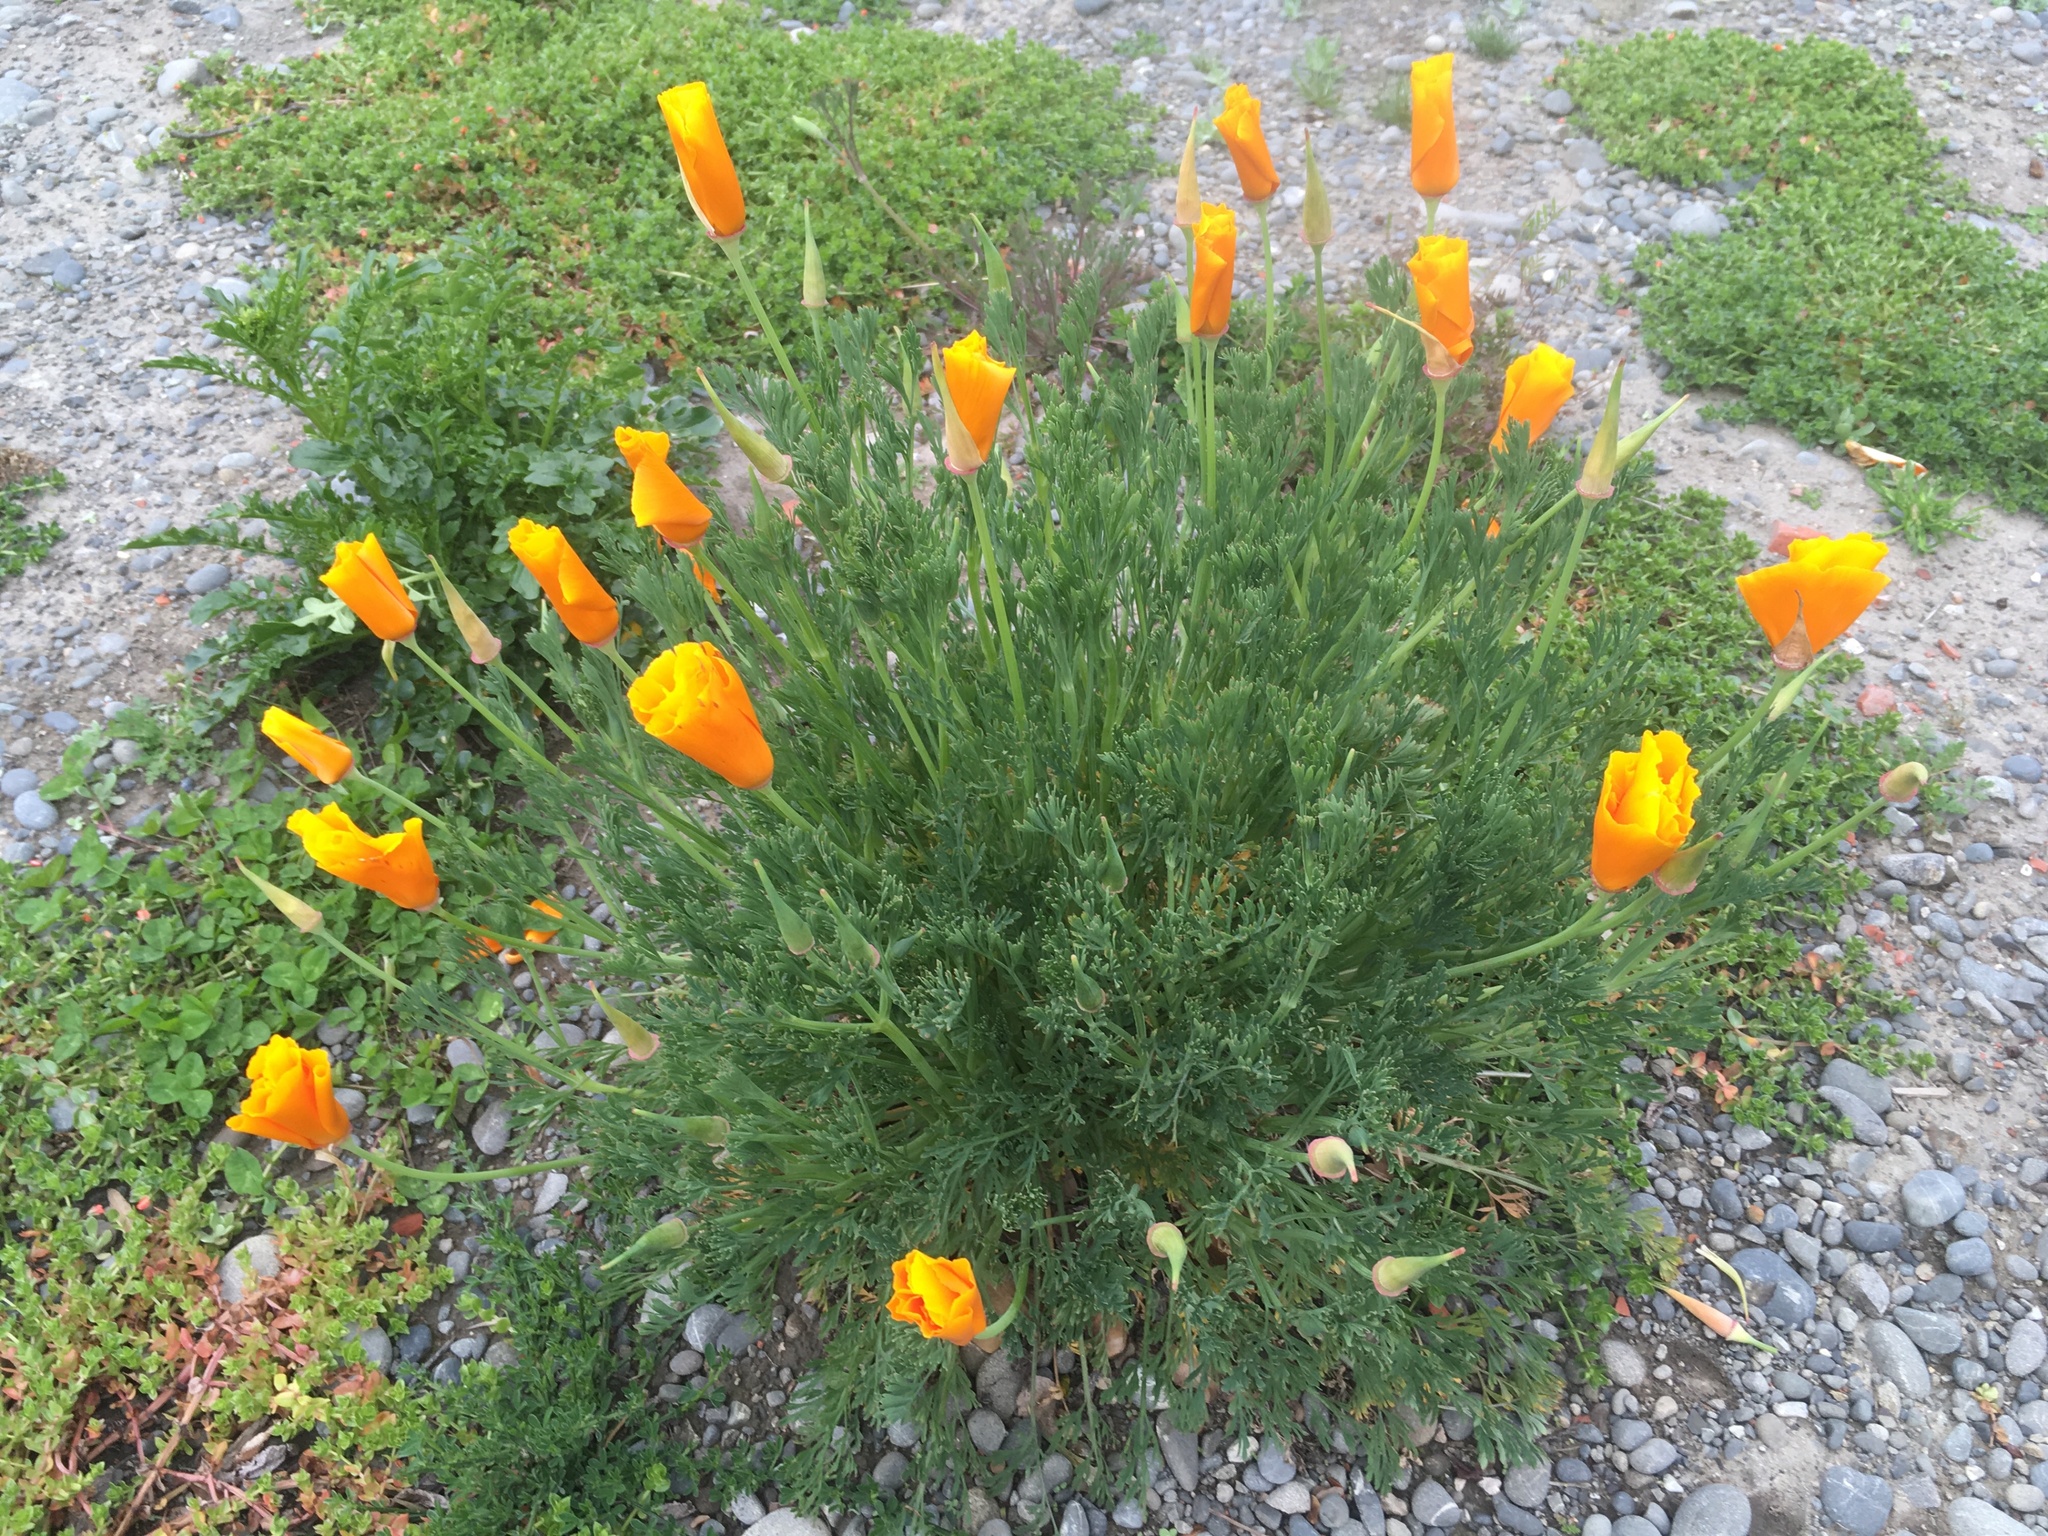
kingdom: Plantae
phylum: Tracheophyta
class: Magnoliopsida
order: Ranunculales
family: Papaveraceae
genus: Eschscholzia
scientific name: Eschscholzia californica
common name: California poppy
